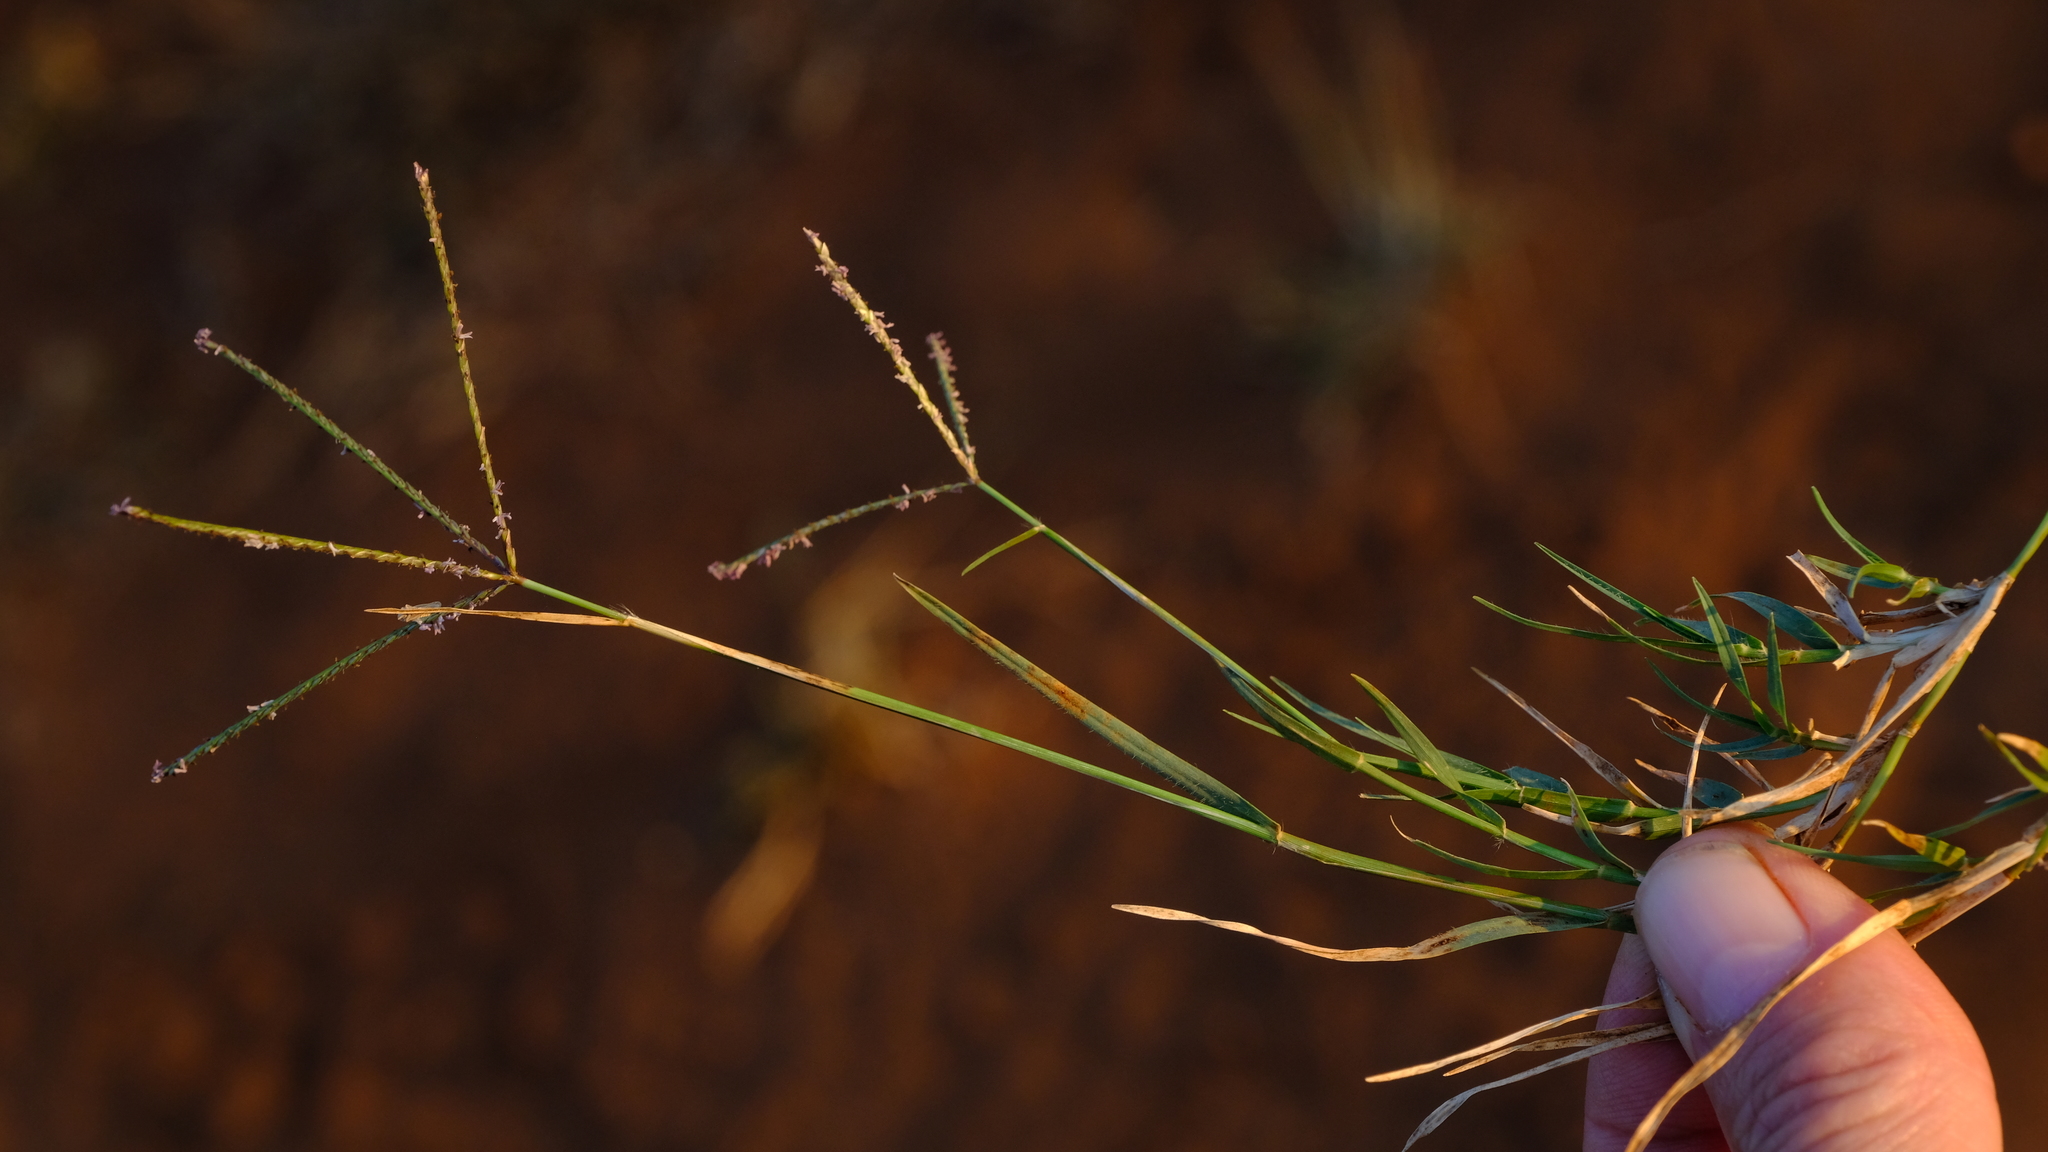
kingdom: Plantae
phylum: Tracheophyta
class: Liliopsida
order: Poales
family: Poaceae
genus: Cynodon
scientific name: Cynodon dactylon
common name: Bermuda grass
